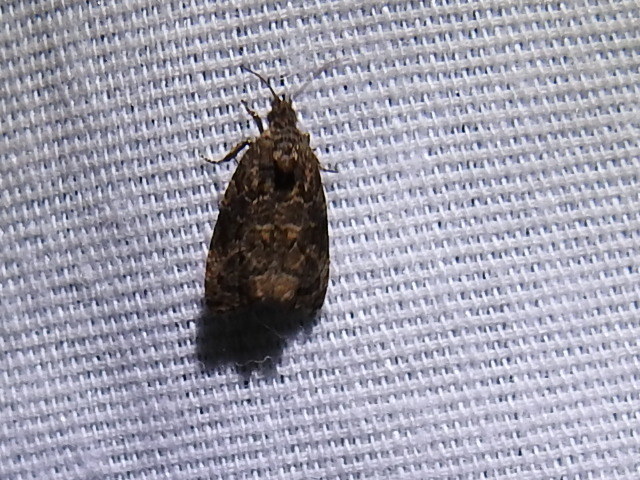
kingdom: Animalia
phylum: Arthropoda
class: Insecta
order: Lepidoptera
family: Tortricidae
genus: Endothenia
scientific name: Endothenia hebesana
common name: Verbena bud moth
